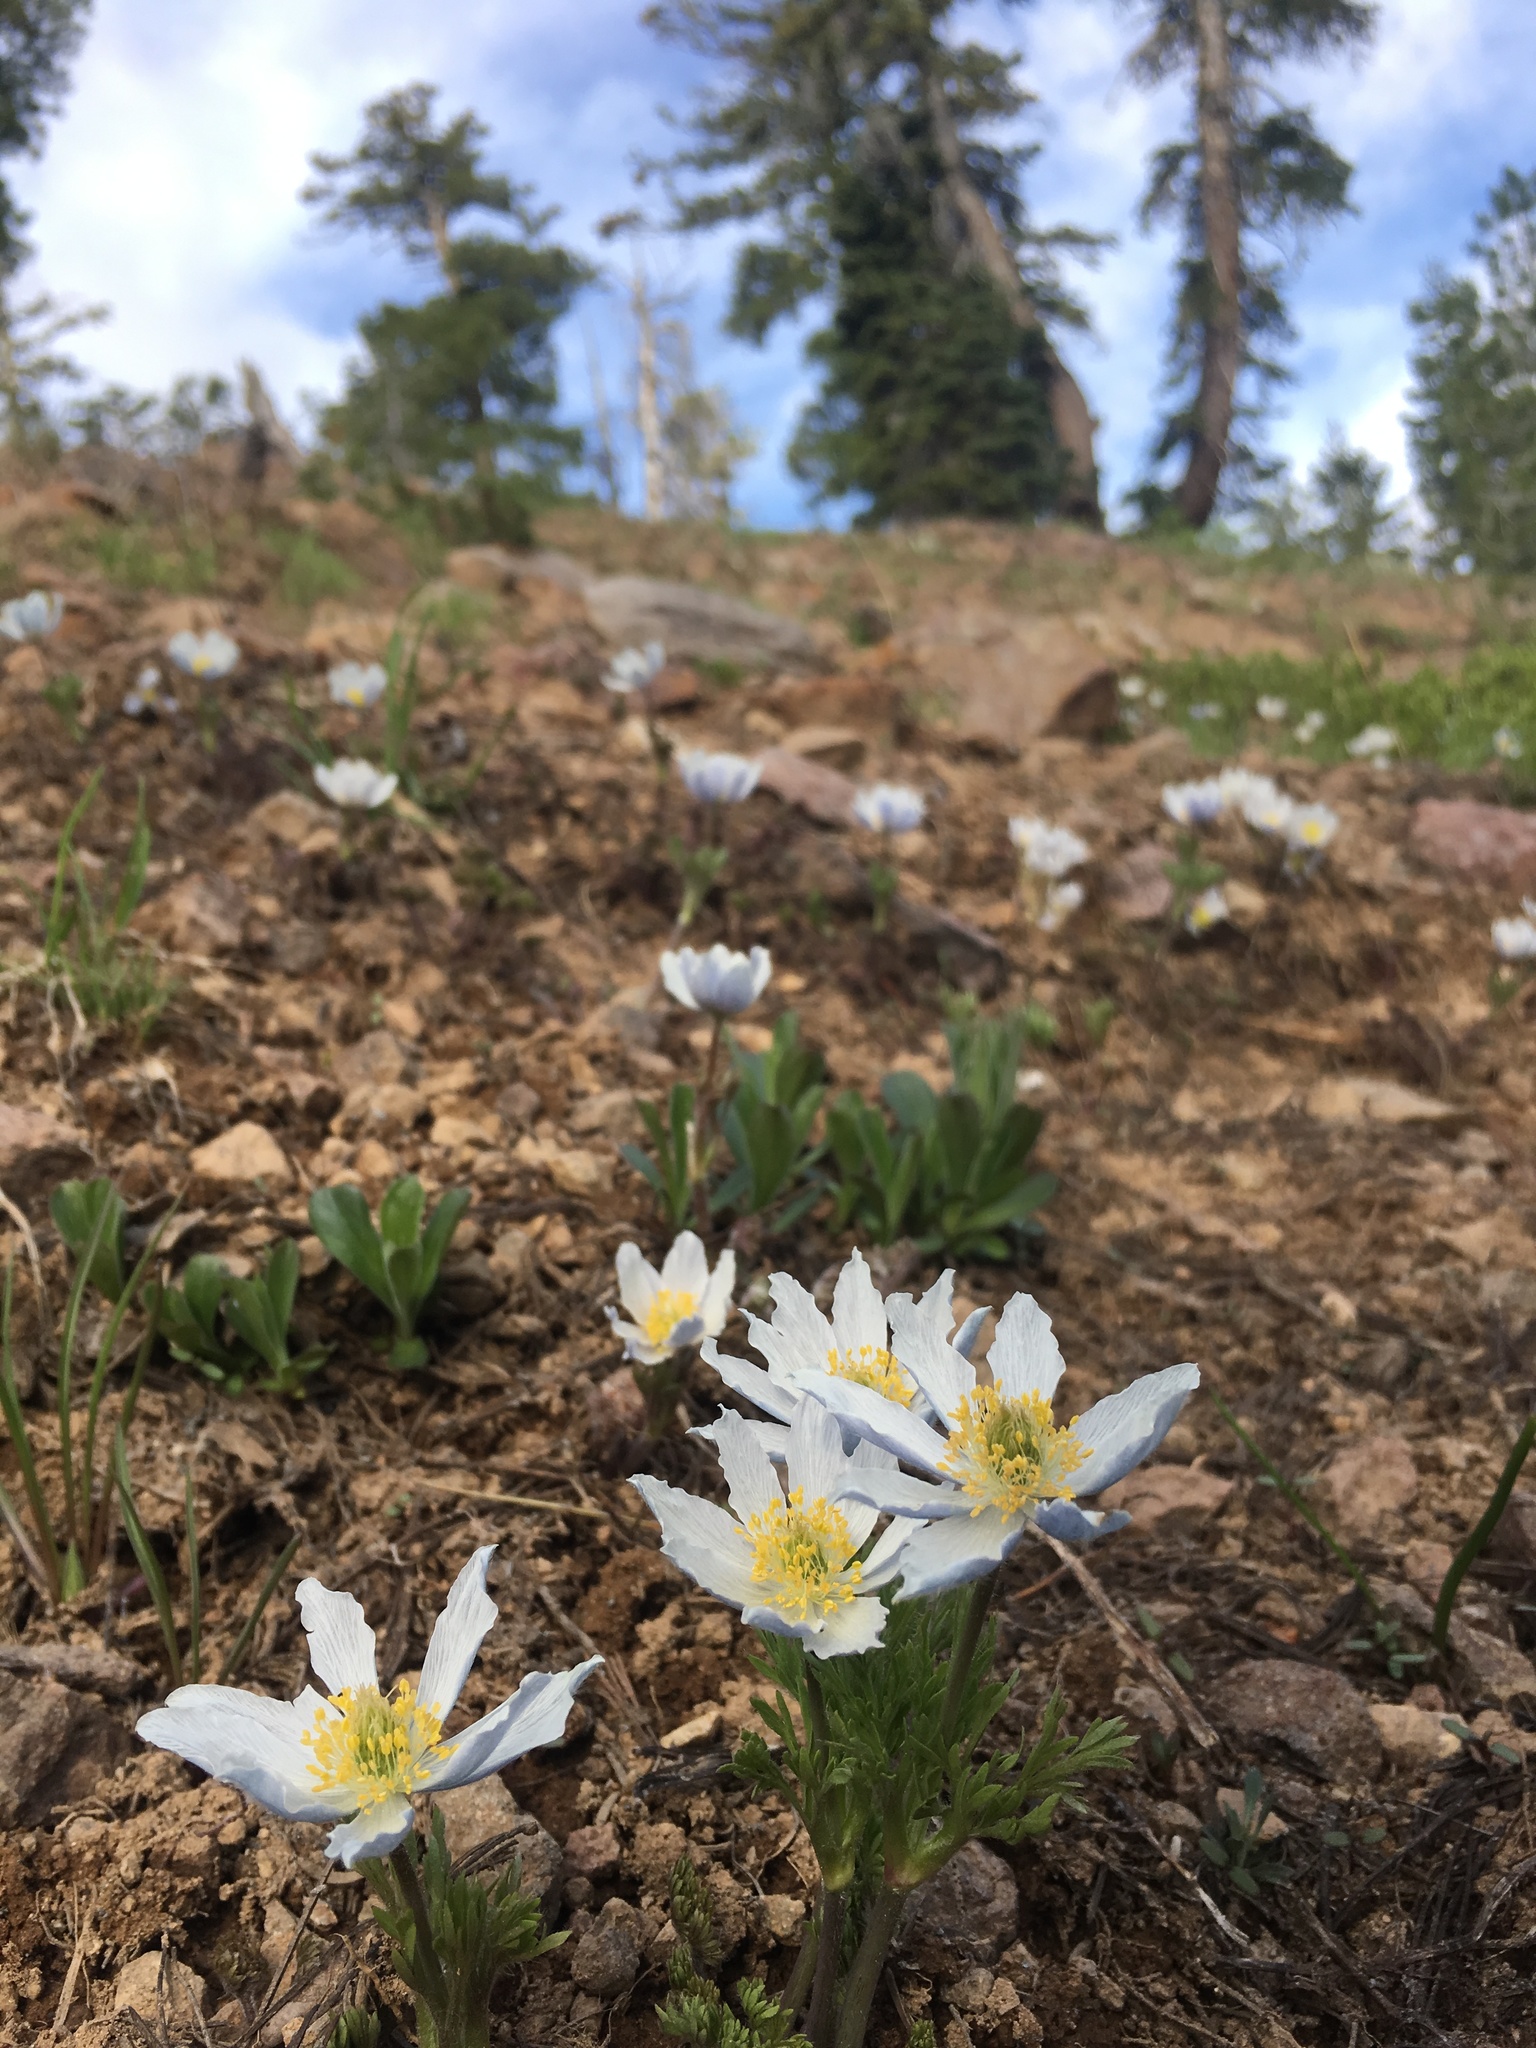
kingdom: Plantae
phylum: Tracheophyta
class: Magnoliopsida
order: Ranunculales
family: Ranunculaceae
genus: Anemone
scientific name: Anemone drummondii
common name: Drummond's anemone
